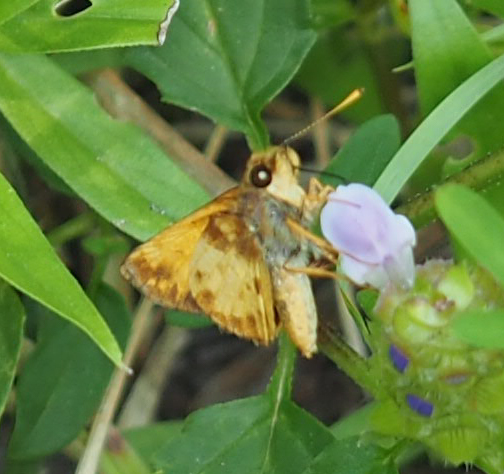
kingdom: Animalia
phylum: Arthropoda
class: Insecta
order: Lepidoptera
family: Hesperiidae
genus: Lon
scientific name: Lon zabulon
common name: Zabulon skipper
